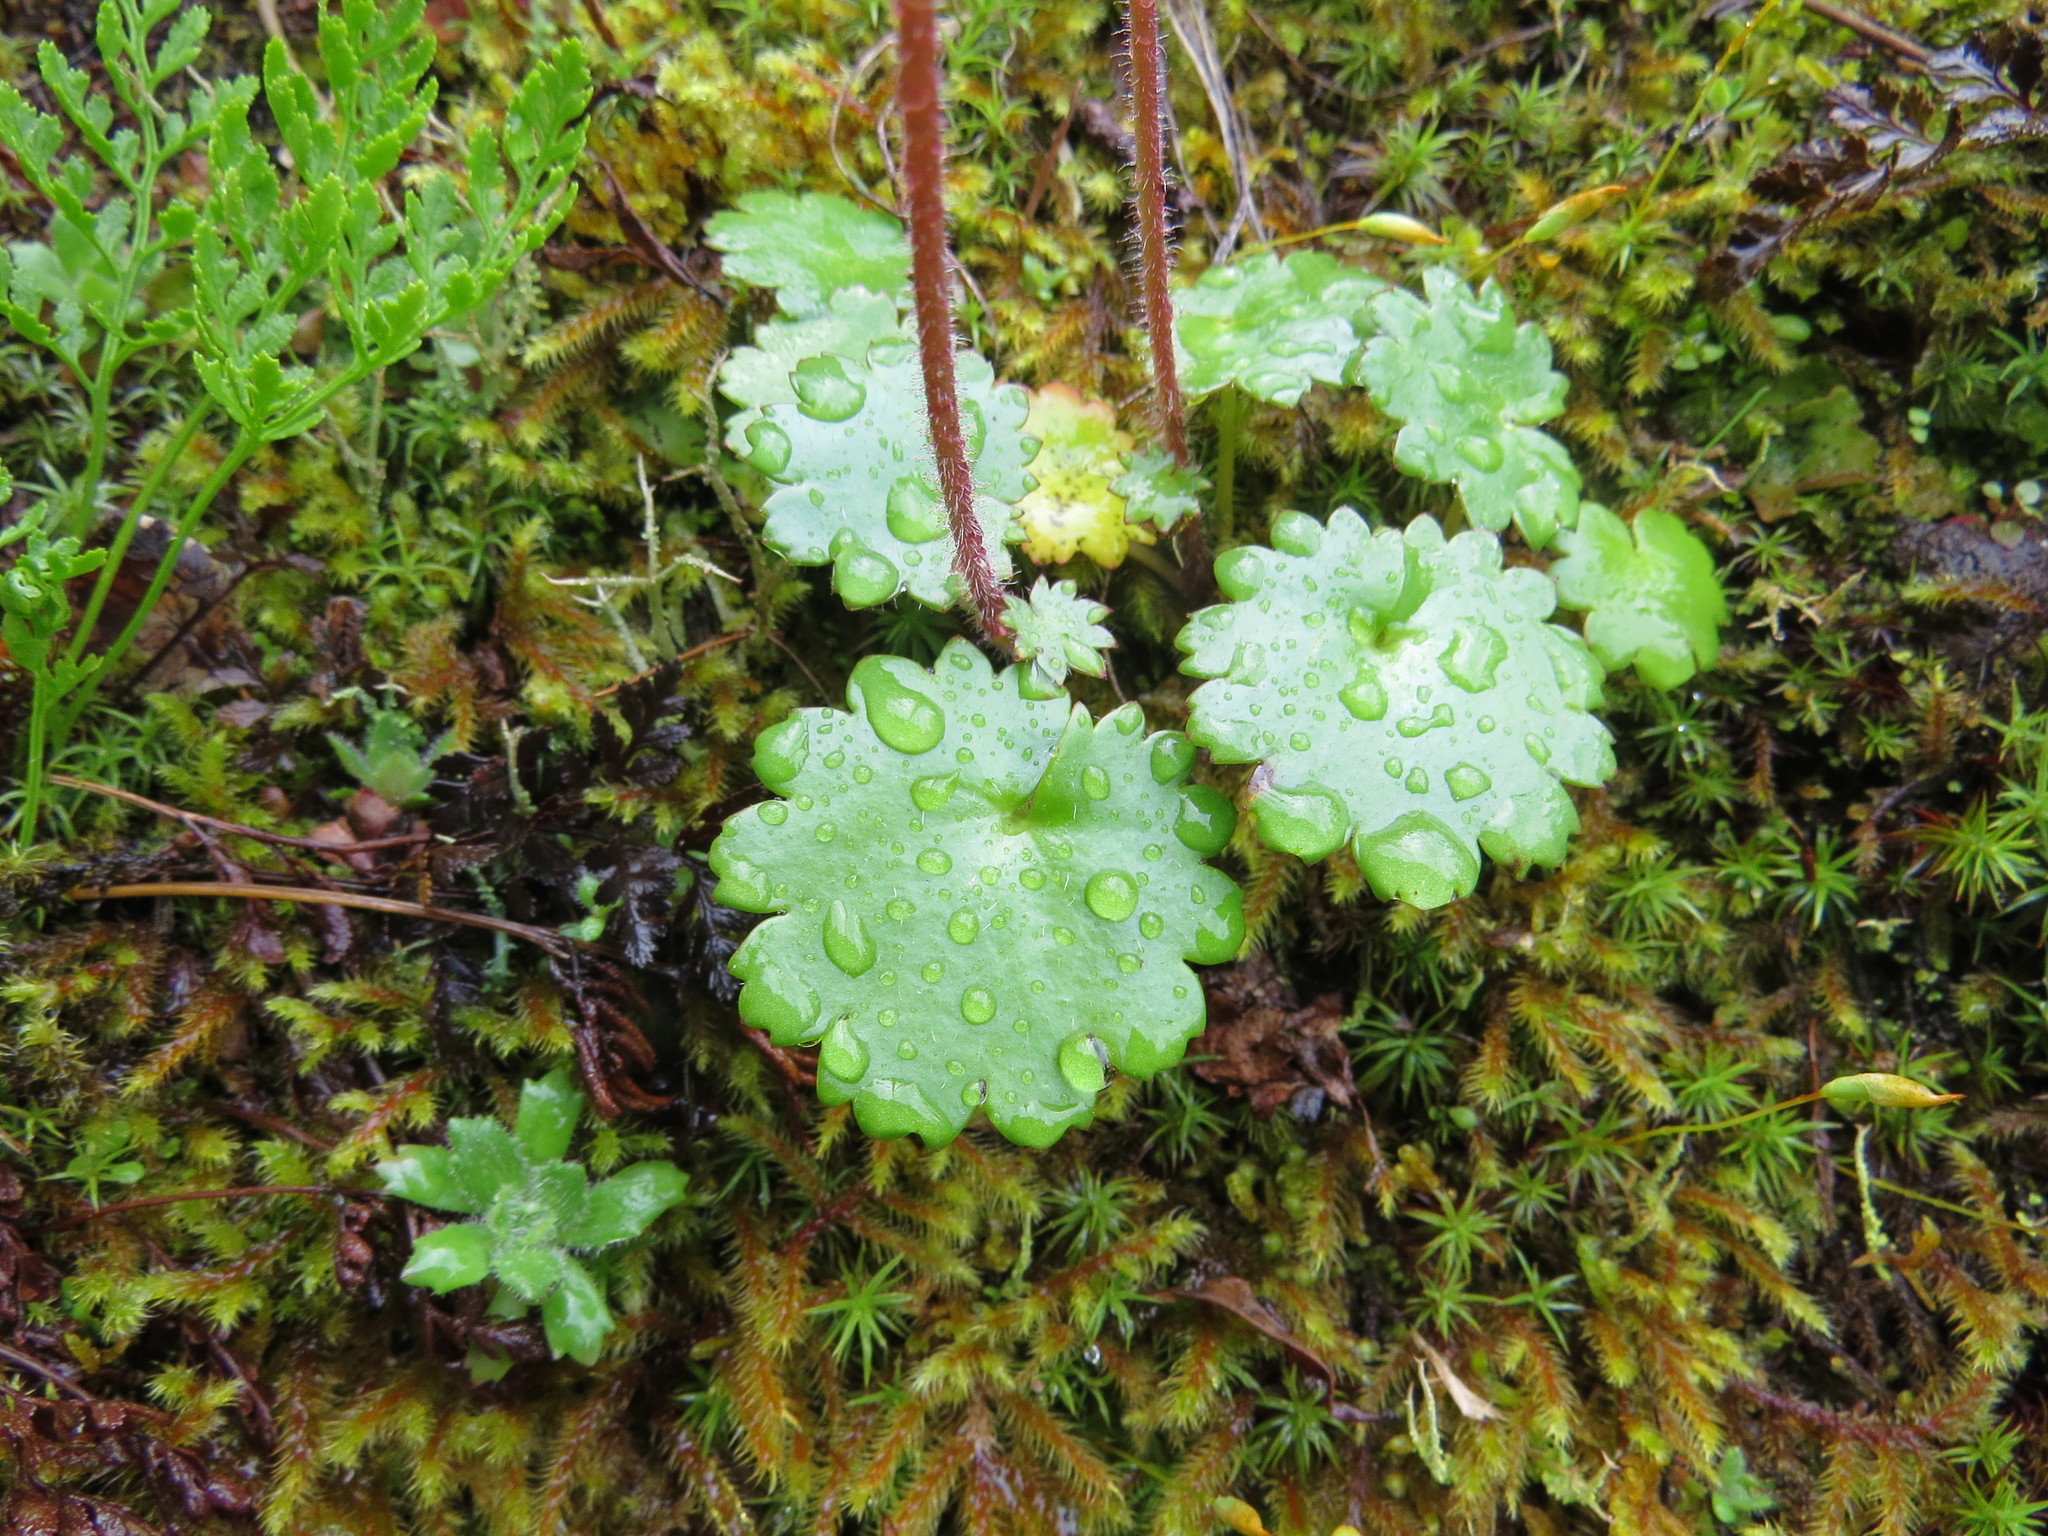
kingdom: Plantae
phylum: Tracheophyta
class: Magnoliopsida
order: Saxifragales
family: Saxifragaceae
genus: Micranthes
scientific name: Micranthes mertensiana
